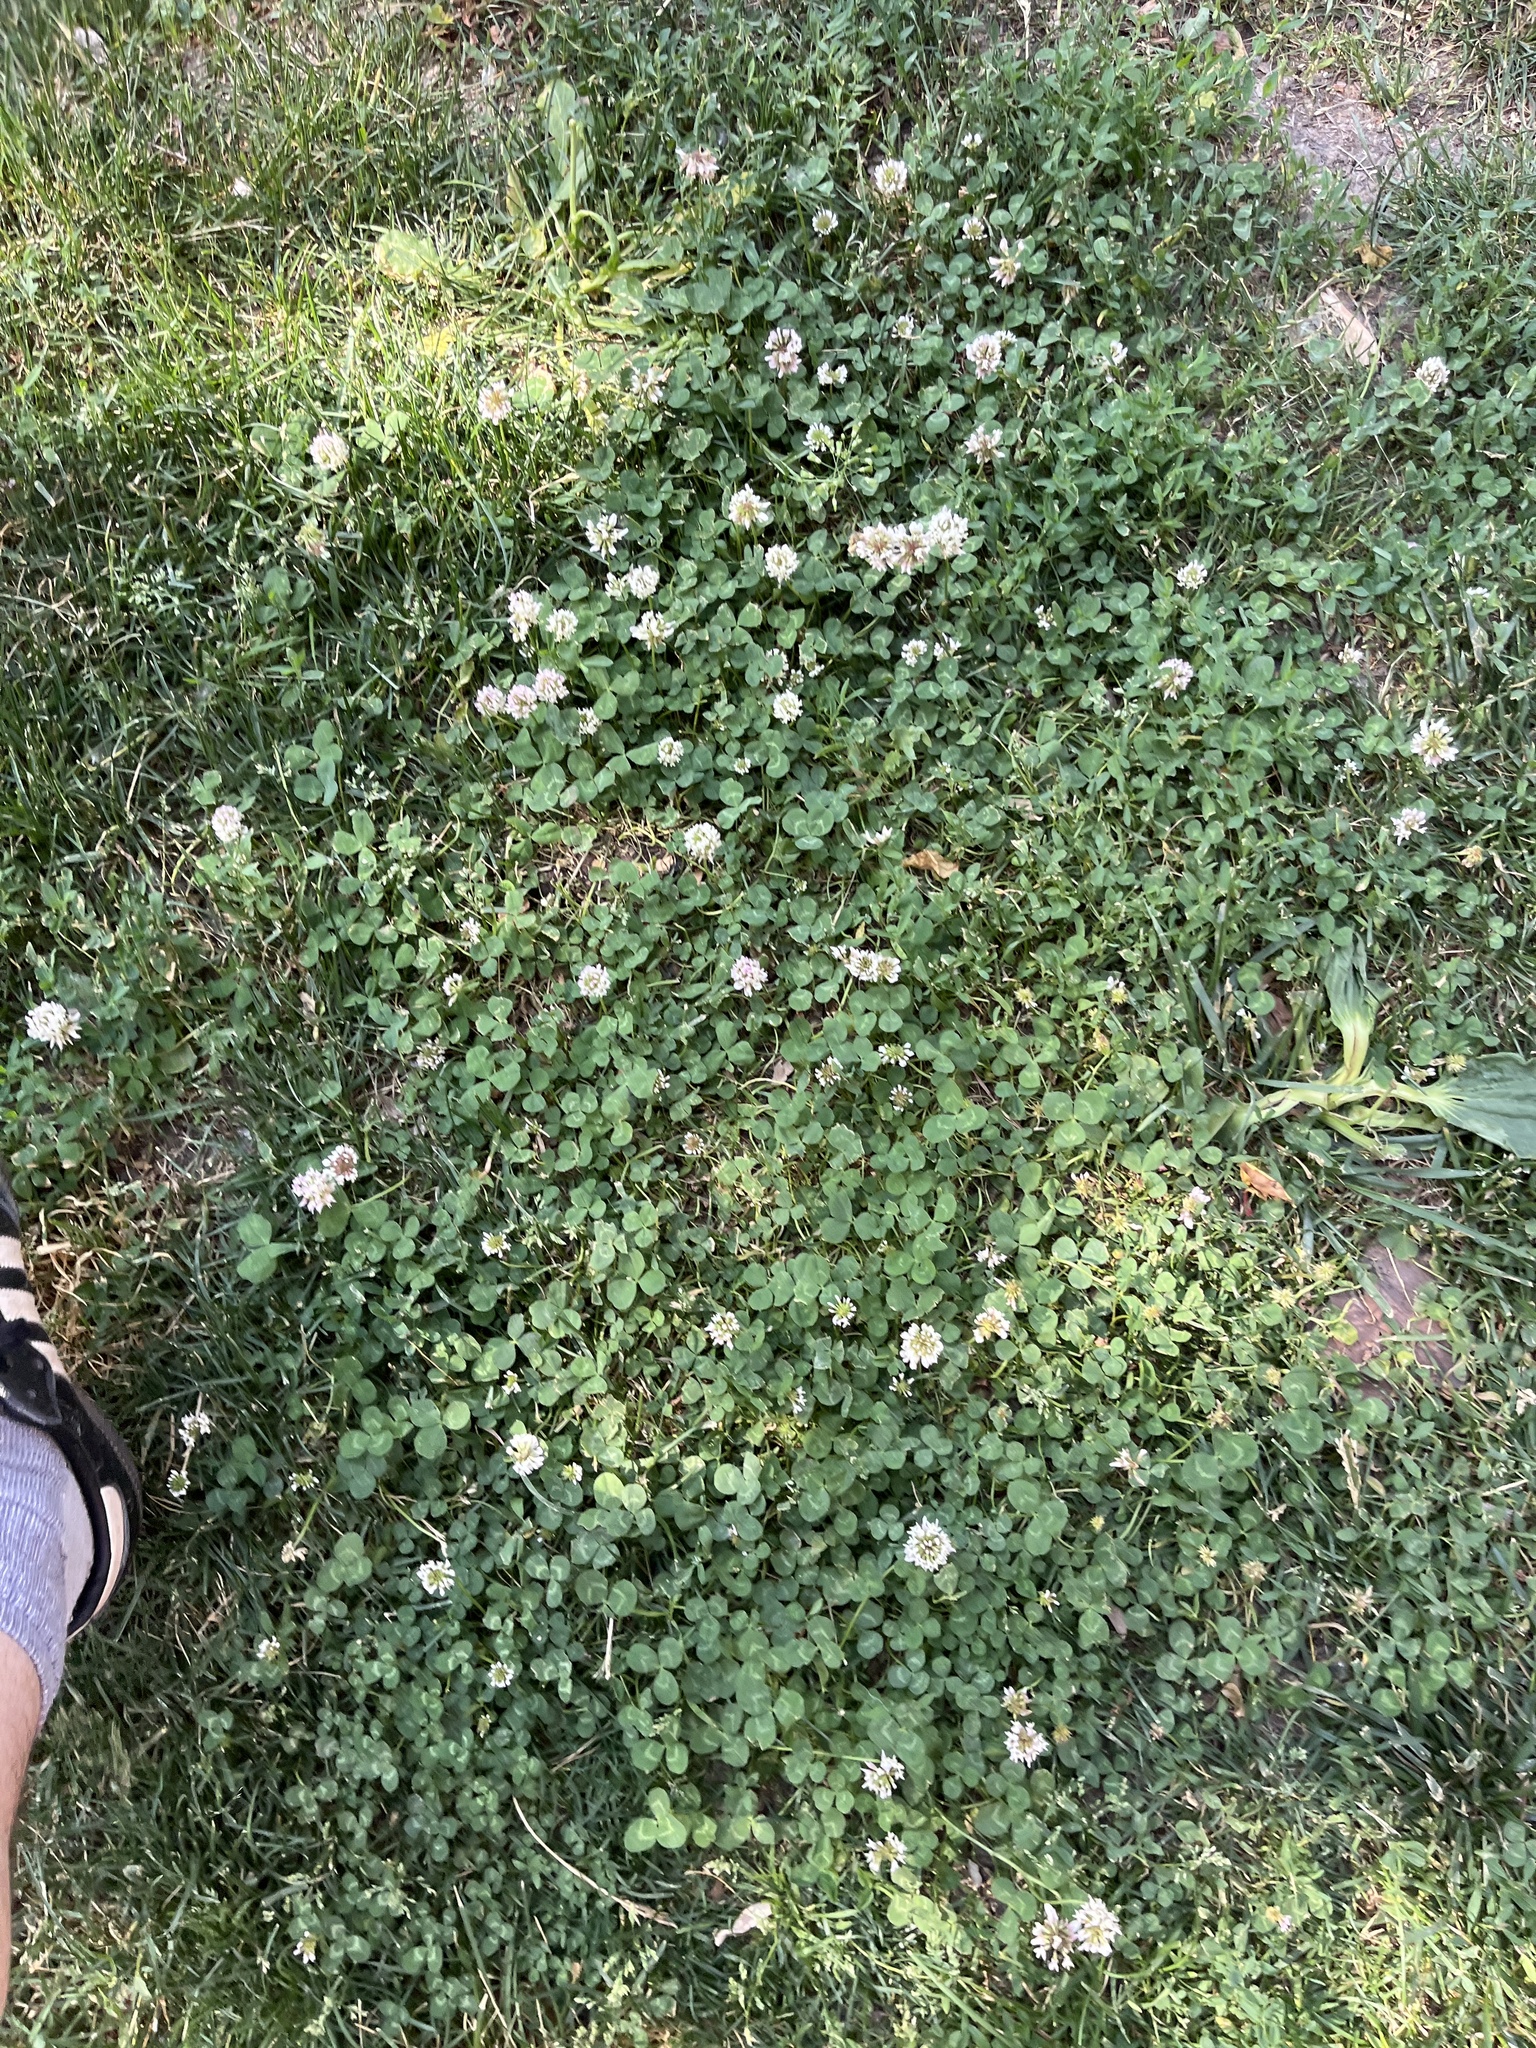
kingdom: Plantae
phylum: Tracheophyta
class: Magnoliopsida
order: Fabales
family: Fabaceae
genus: Trifolium
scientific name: Trifolium repens
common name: White clover
